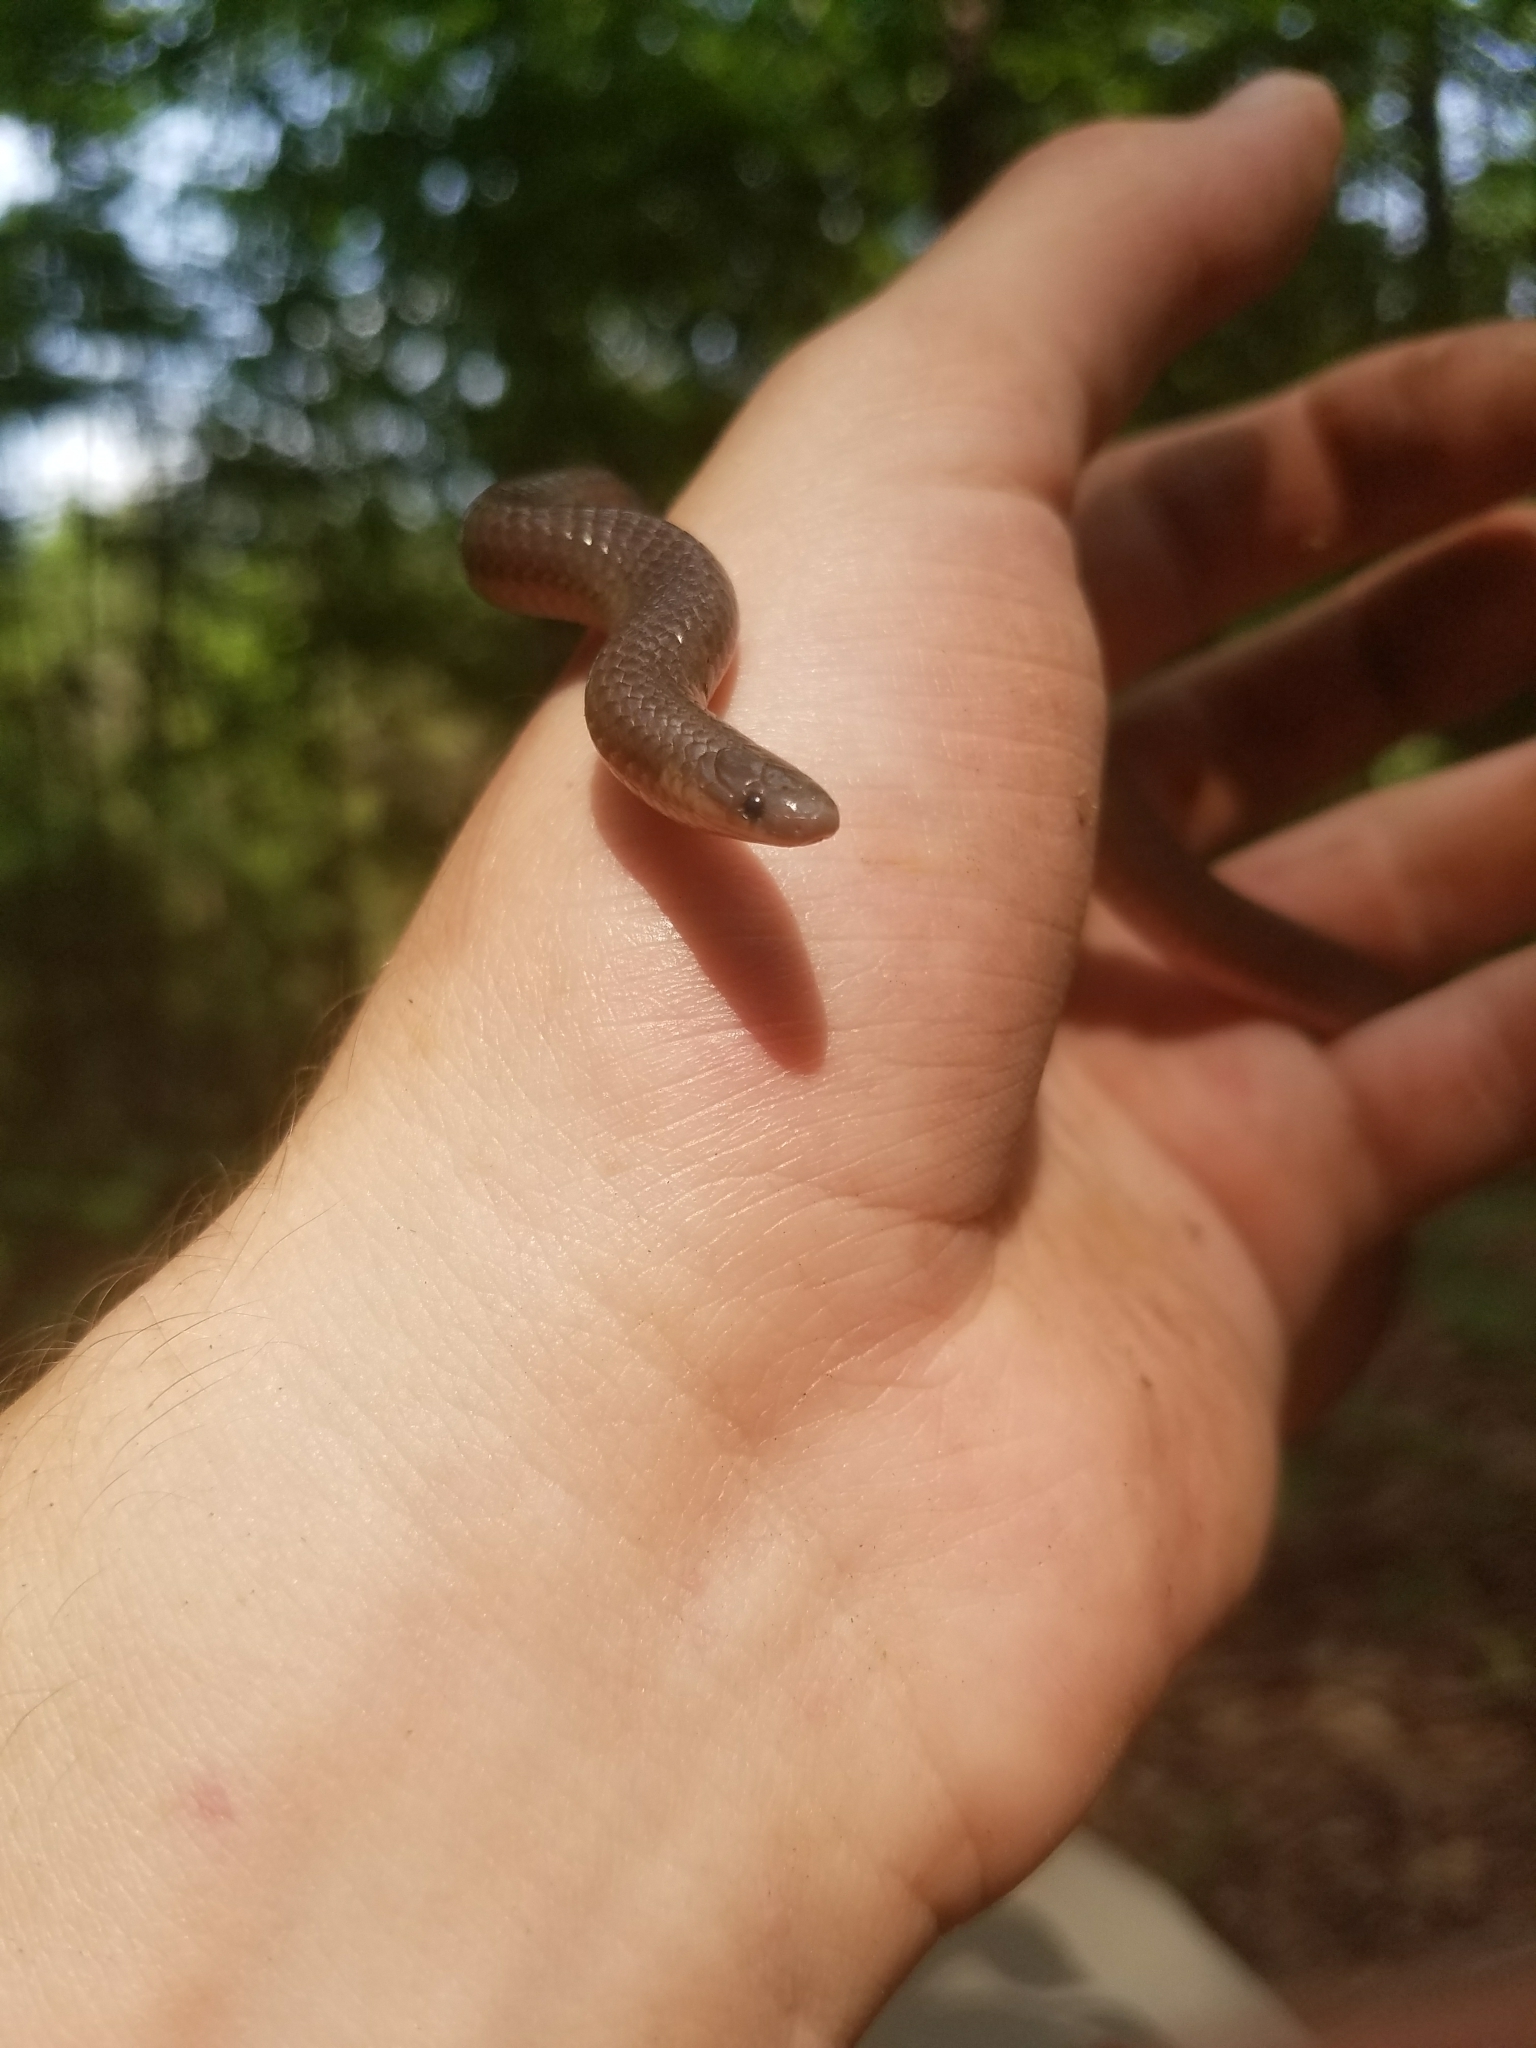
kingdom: Animalia
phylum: Chordata
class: Squamata
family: Colubridae
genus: Carphophis
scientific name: Carphophis amoenus
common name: Eastern worm snake
